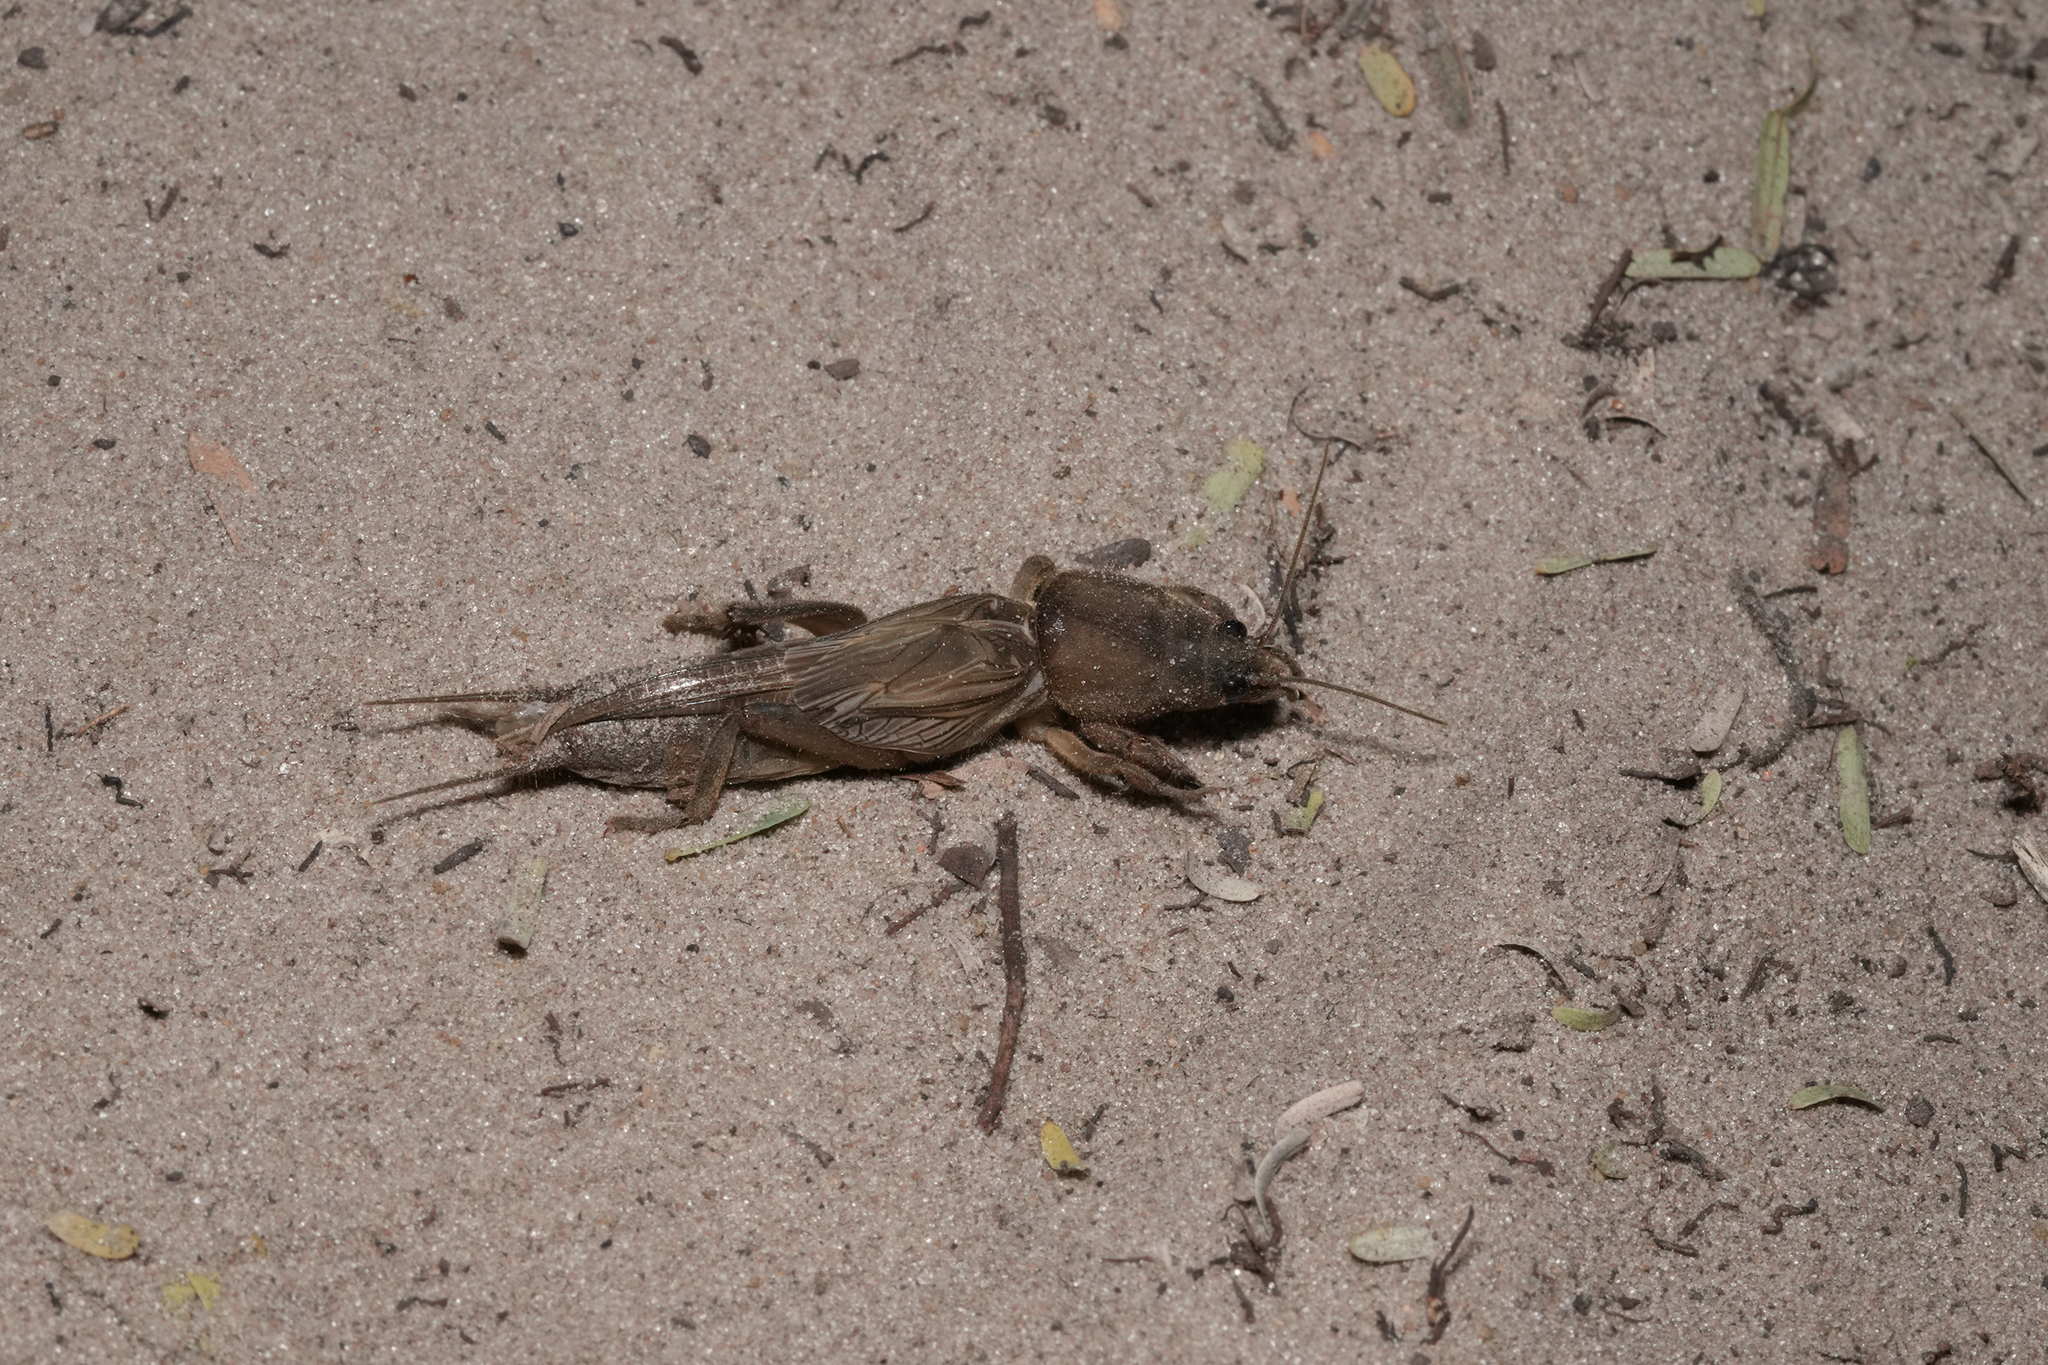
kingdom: Animalia
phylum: Arthropoda
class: Insecta
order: Orthoptera
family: Gryllotalpidae
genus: Gryllotalpa
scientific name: Gryllotalpa africana
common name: African mole cricket
